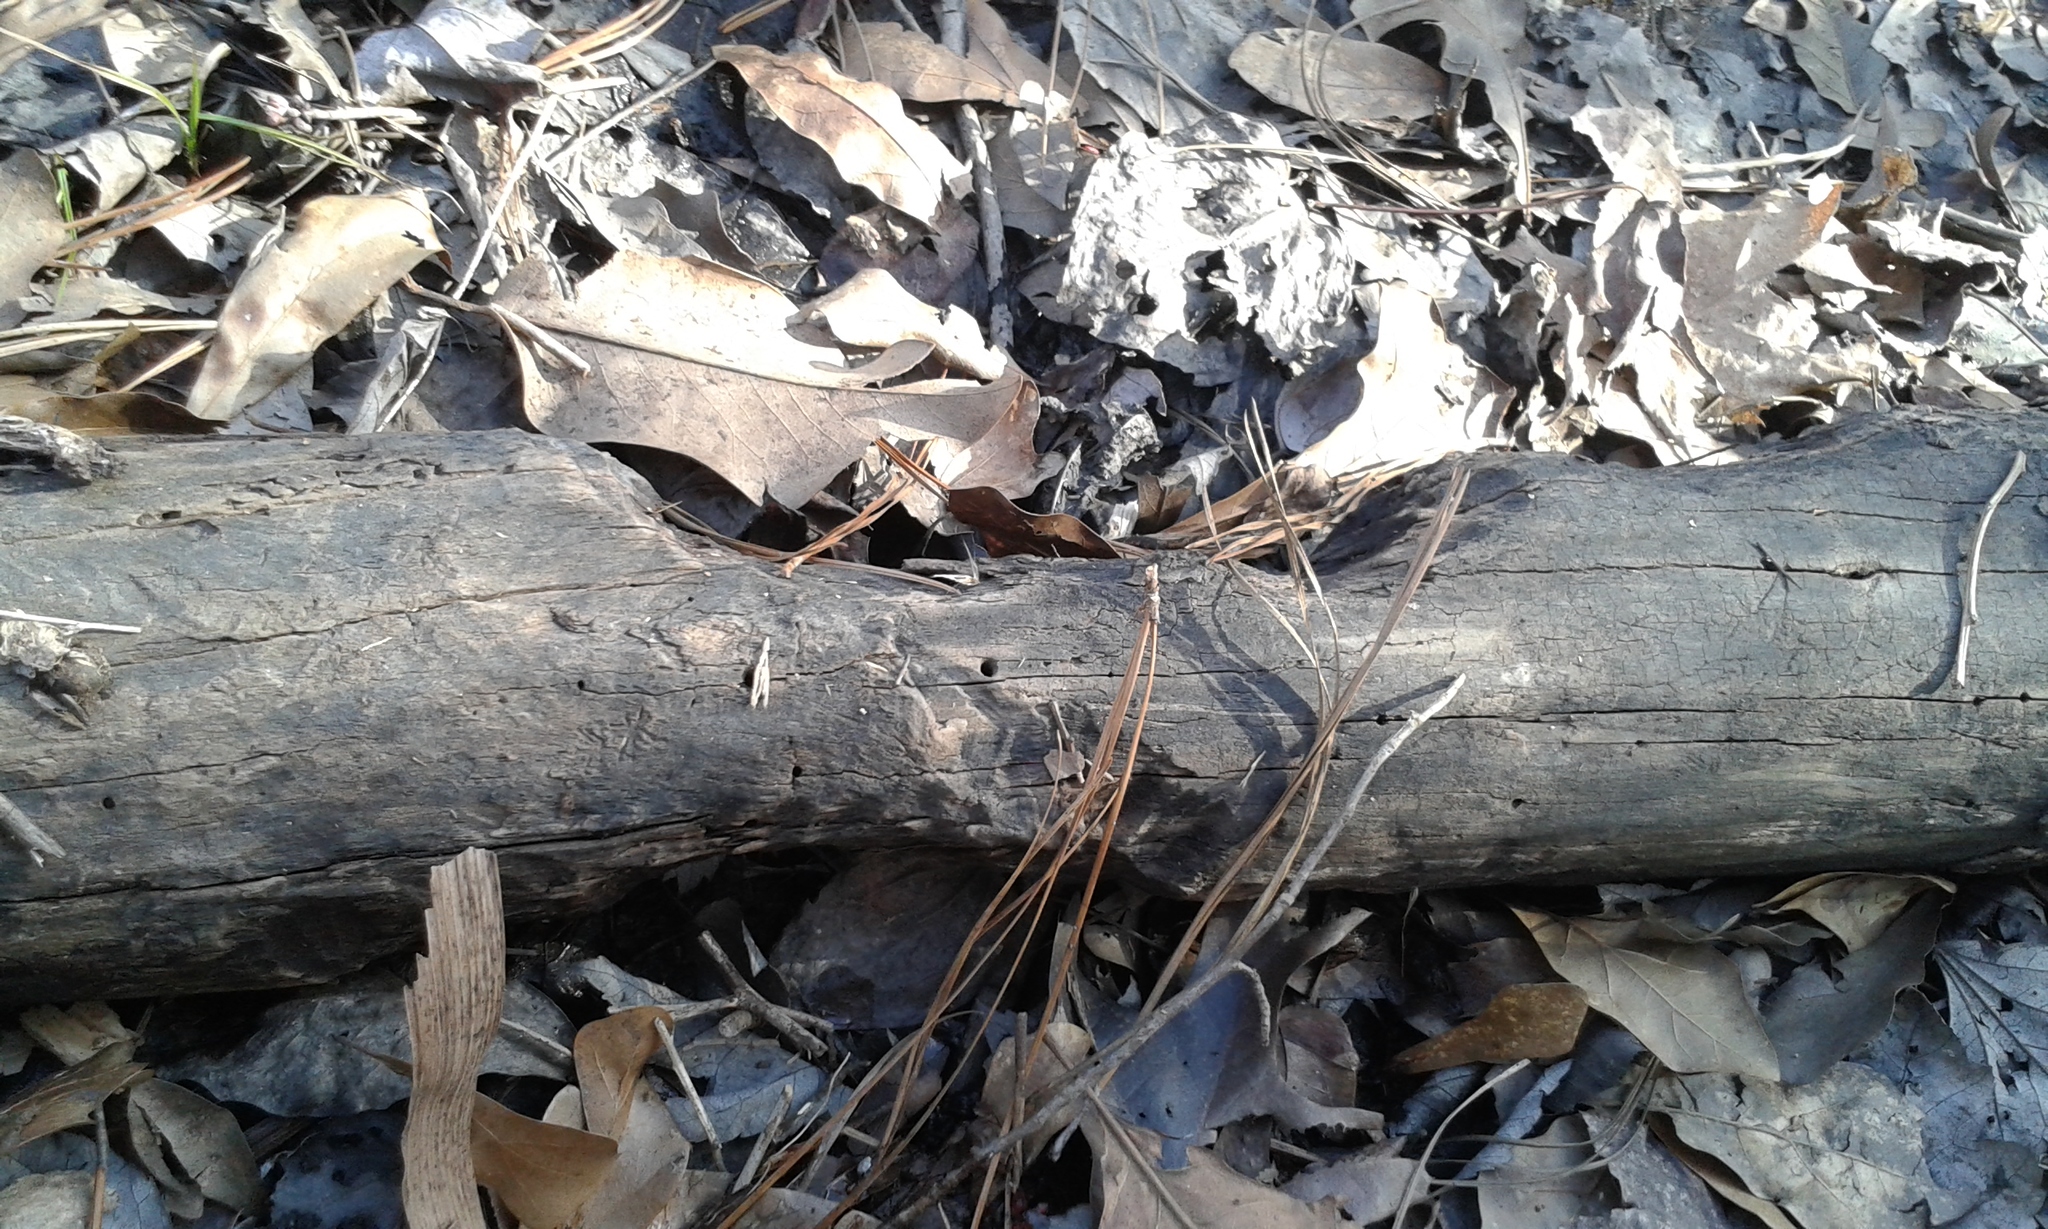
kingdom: Animalia
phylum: Chordata
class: Mammalia
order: Rodentia
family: Castoridae
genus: Castor
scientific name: Castor canadensis
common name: American beaver
